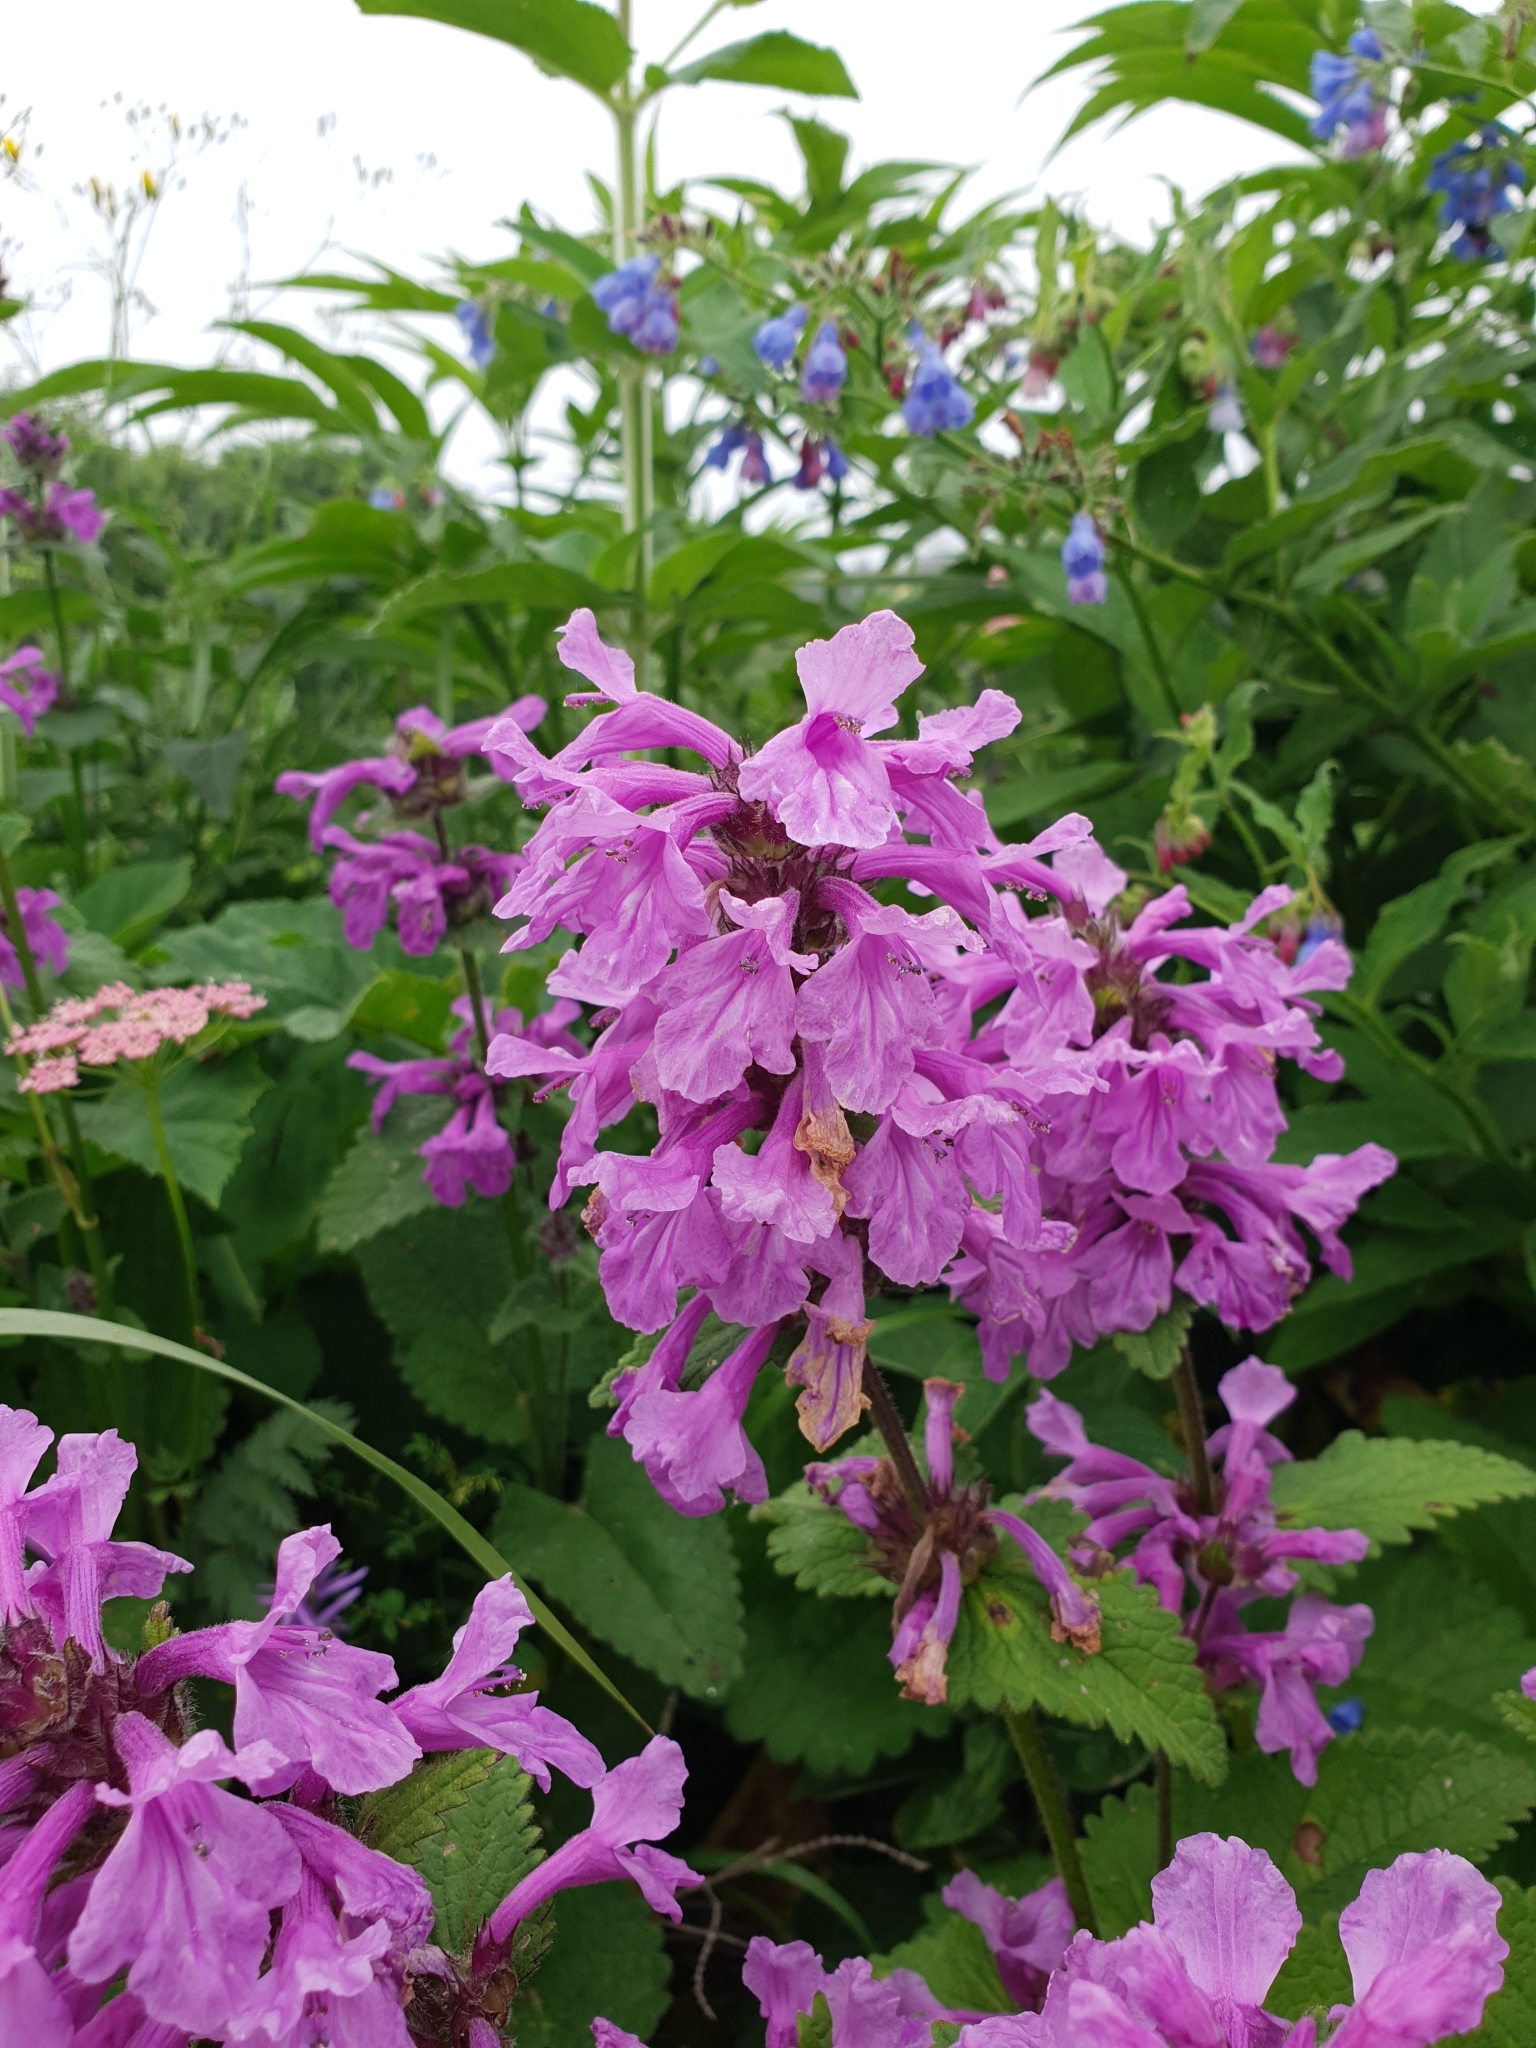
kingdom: Plantae
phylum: Tracheophyta
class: Magnoliopsida
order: Lamiales
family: Lamiaceae
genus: Betonica
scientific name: Betonica macrantha
